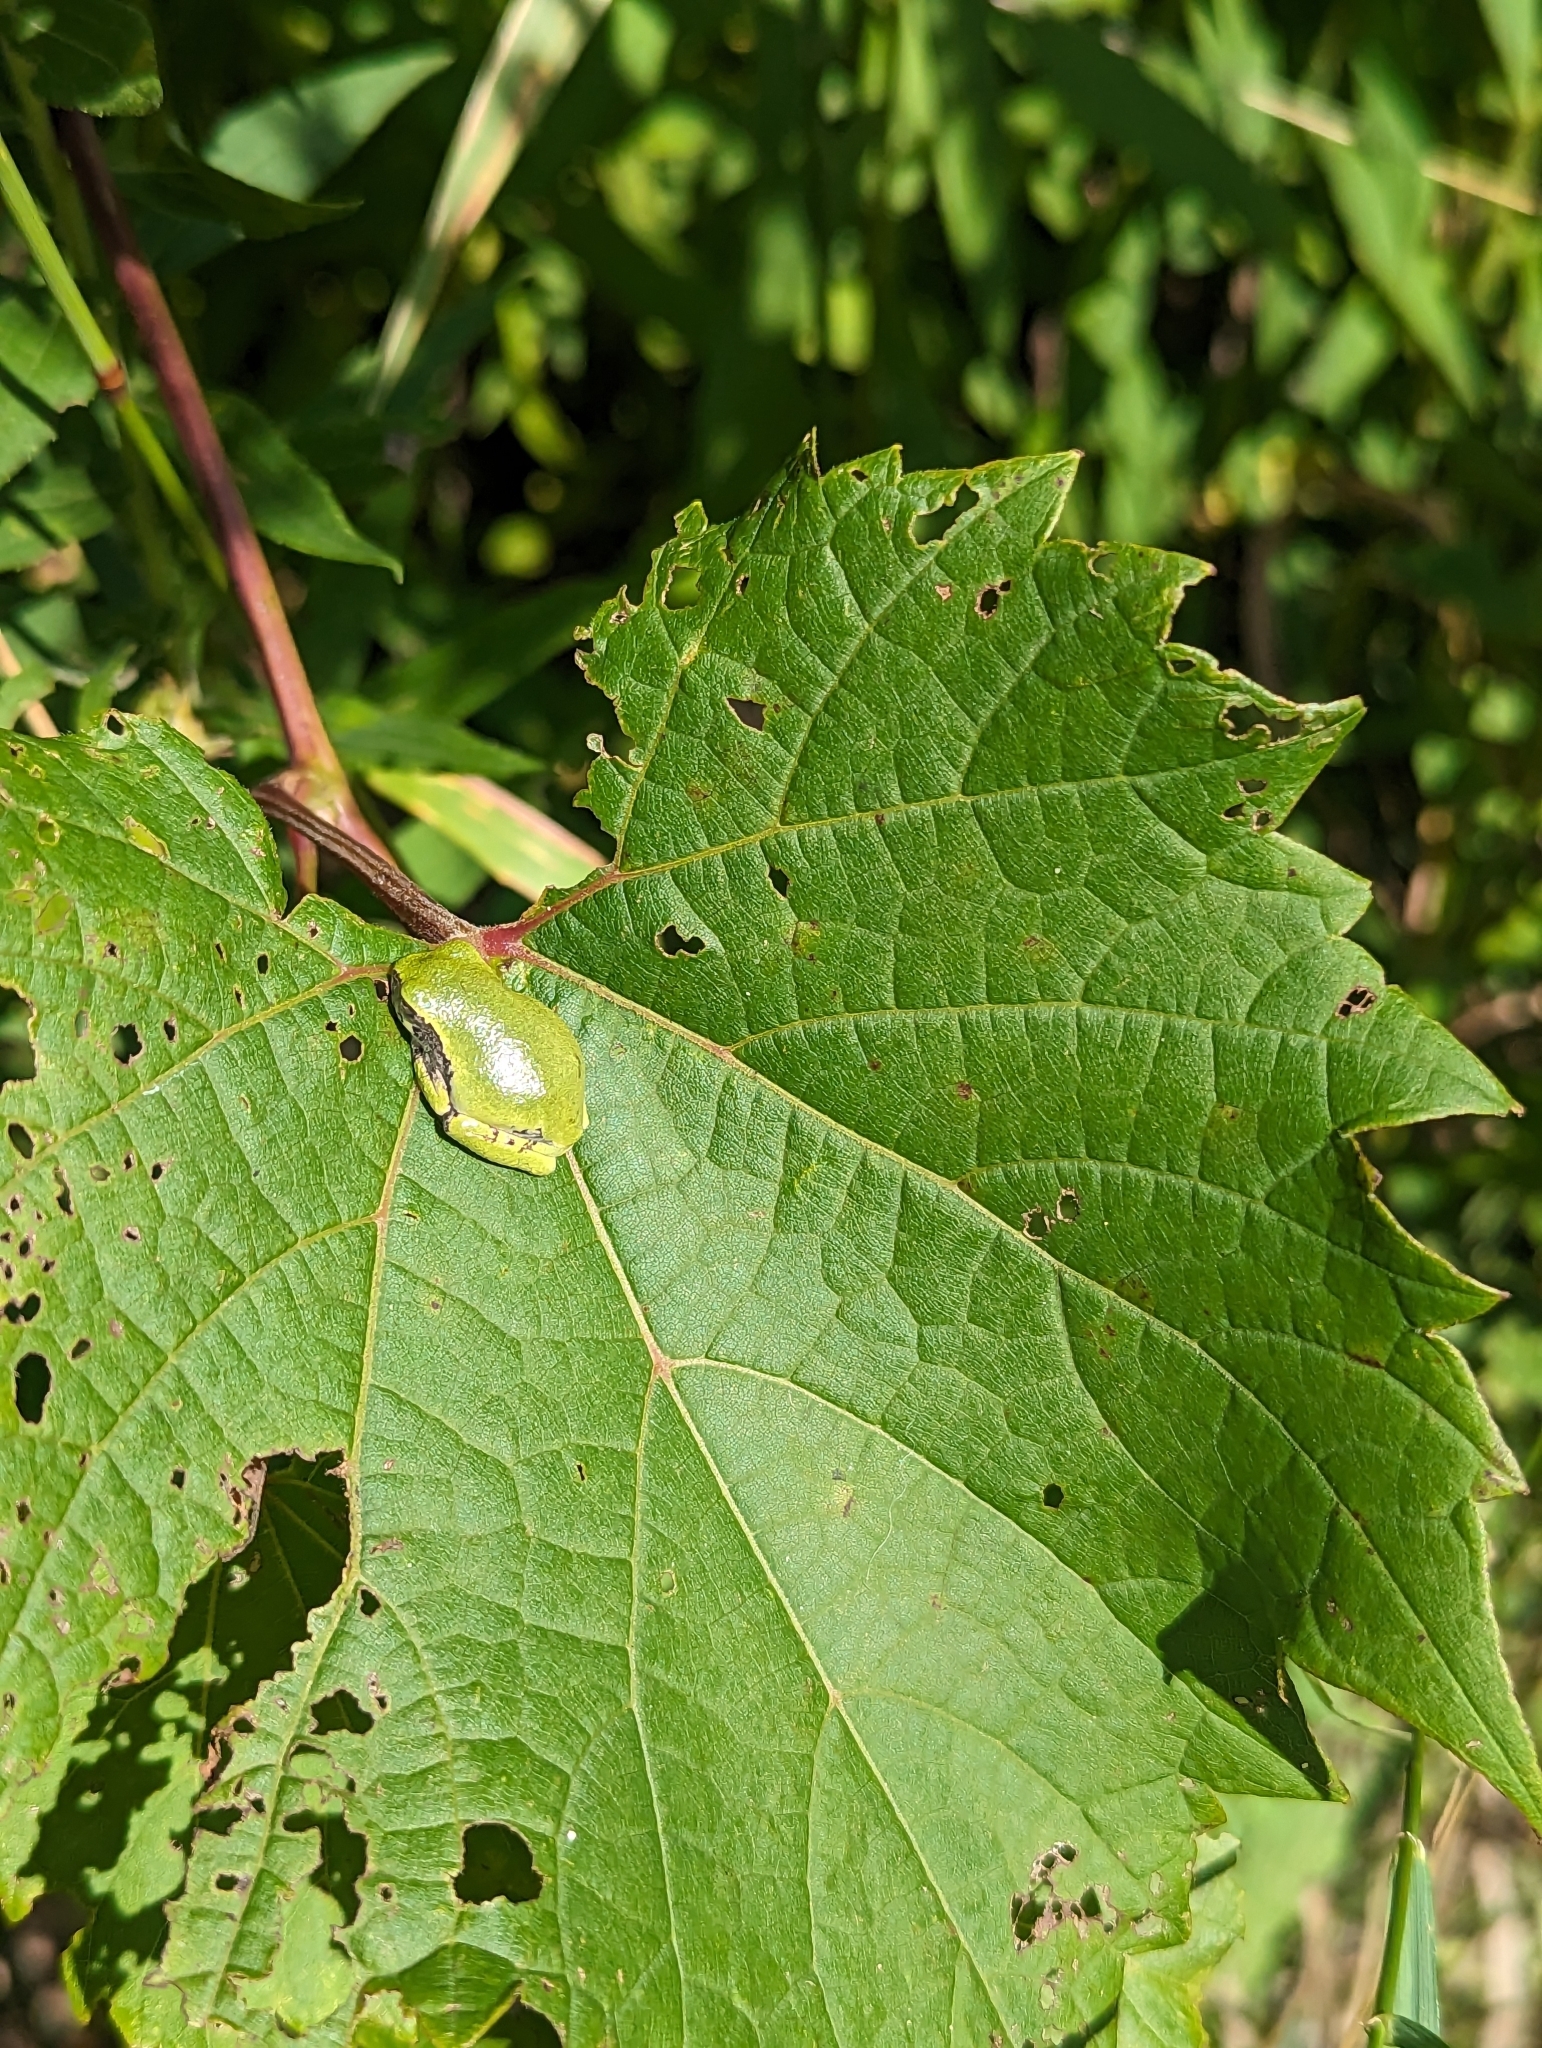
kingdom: Animalia
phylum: Chordata
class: Amphibia
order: Anura
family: Hylidae
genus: Hyla
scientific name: Hyla
